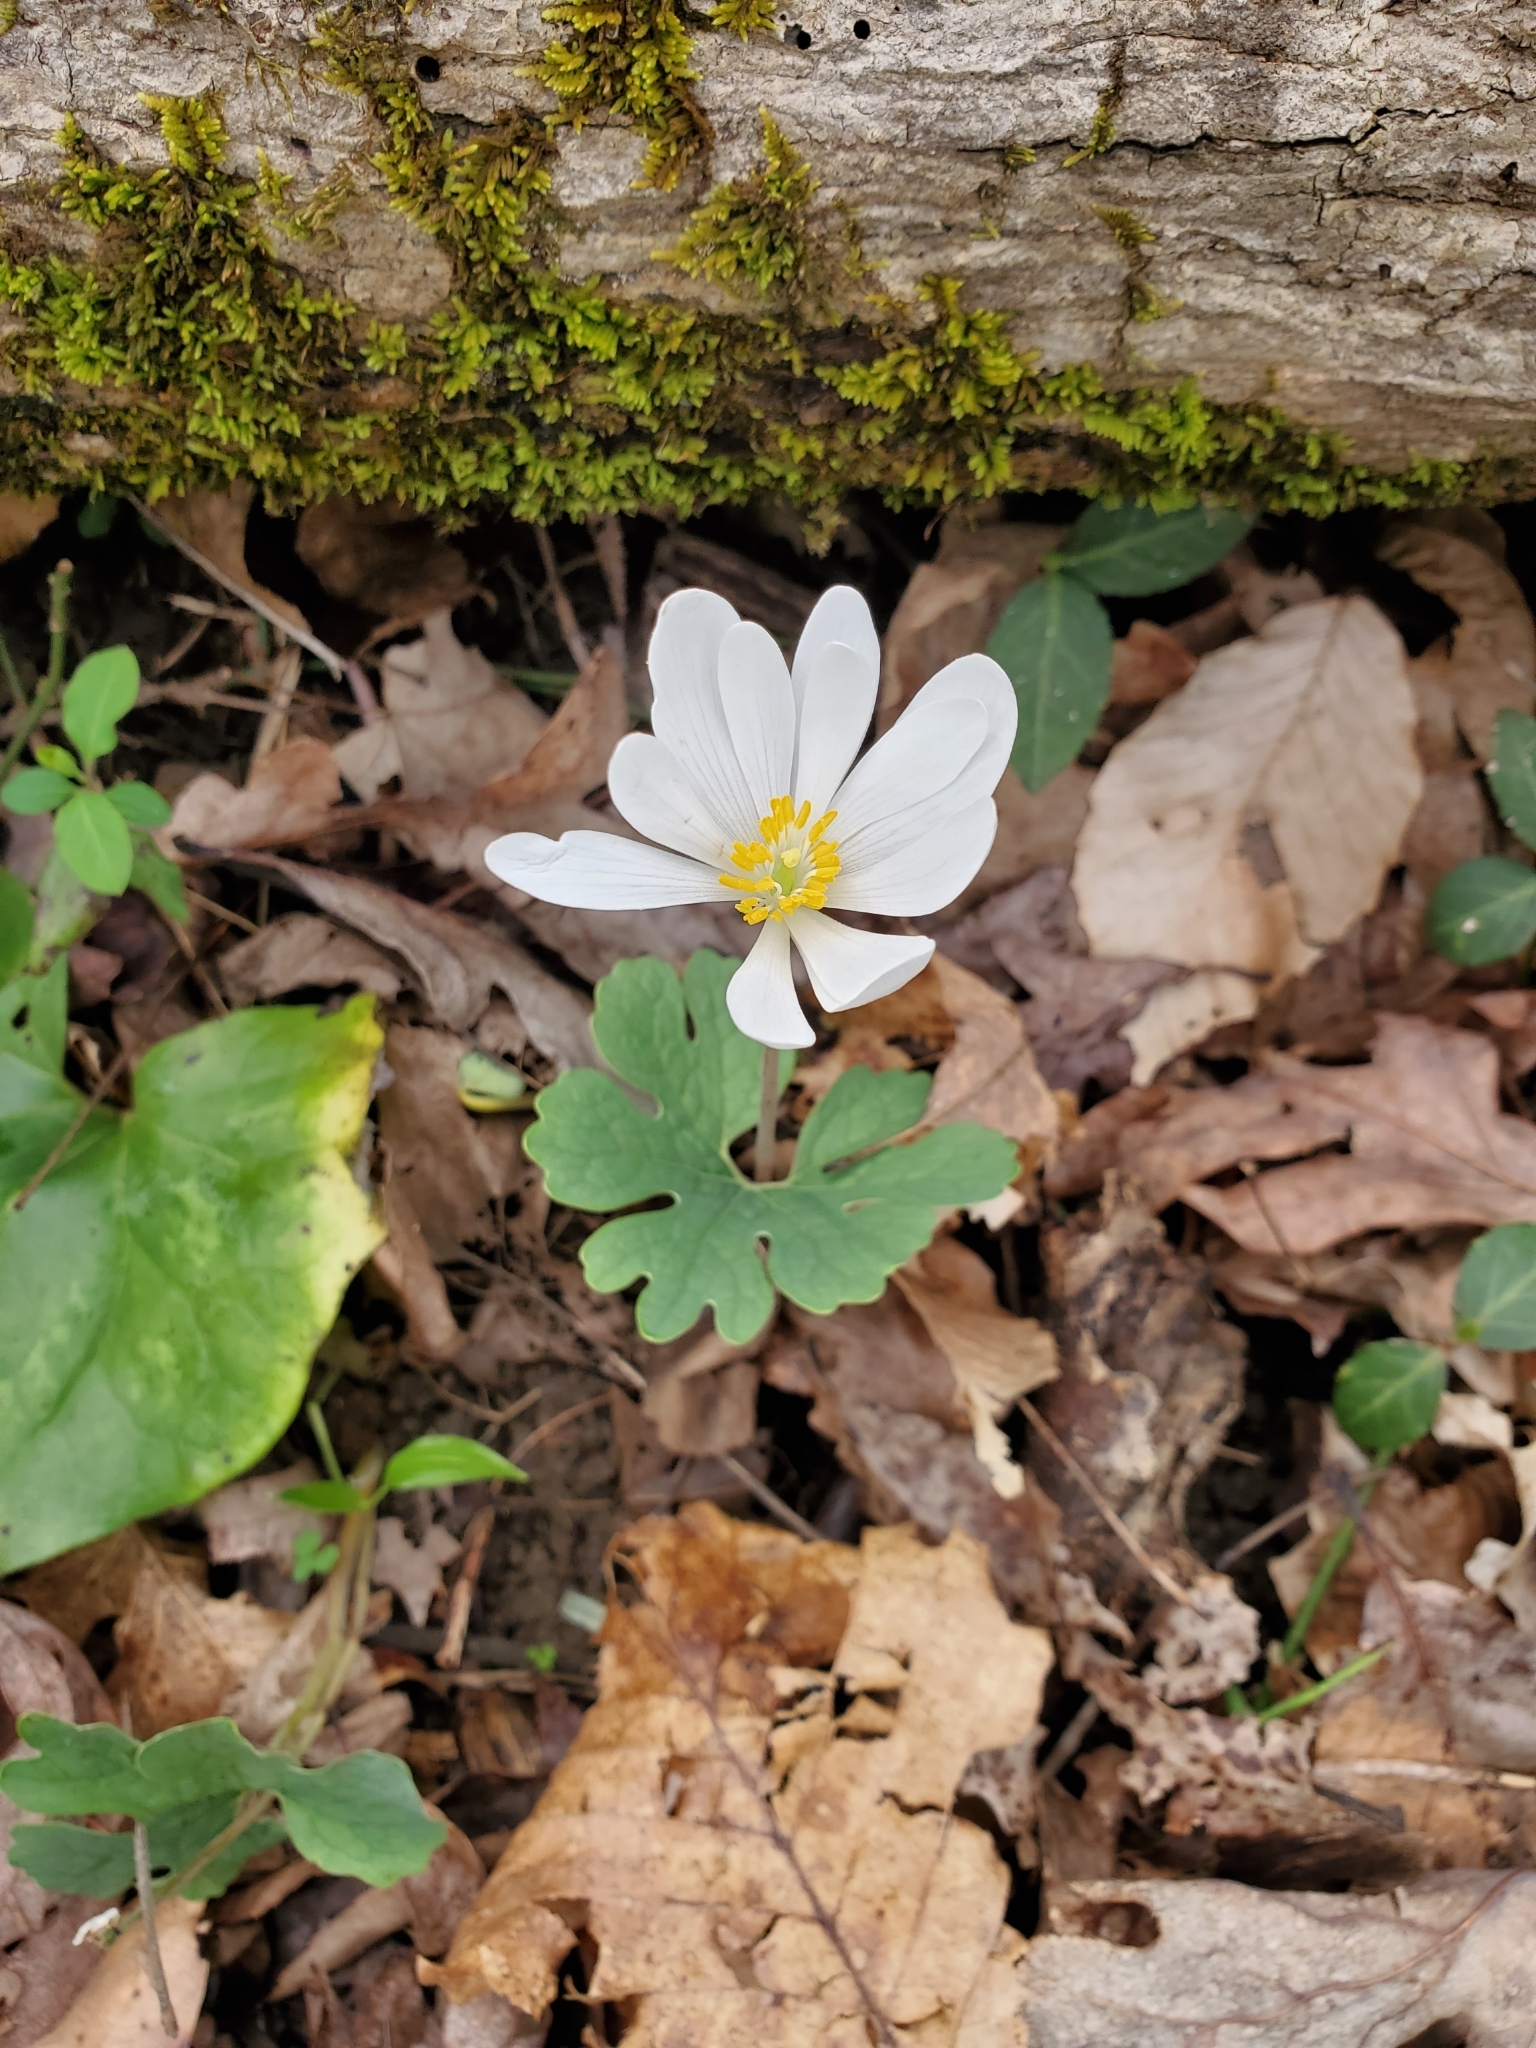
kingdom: Plantae
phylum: Tracheophyta
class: Magnoliopsida
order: Ranunculales
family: Papaveraceae
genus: Sanguinaria
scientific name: Sanguinaria canadensis
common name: Bloodroot
